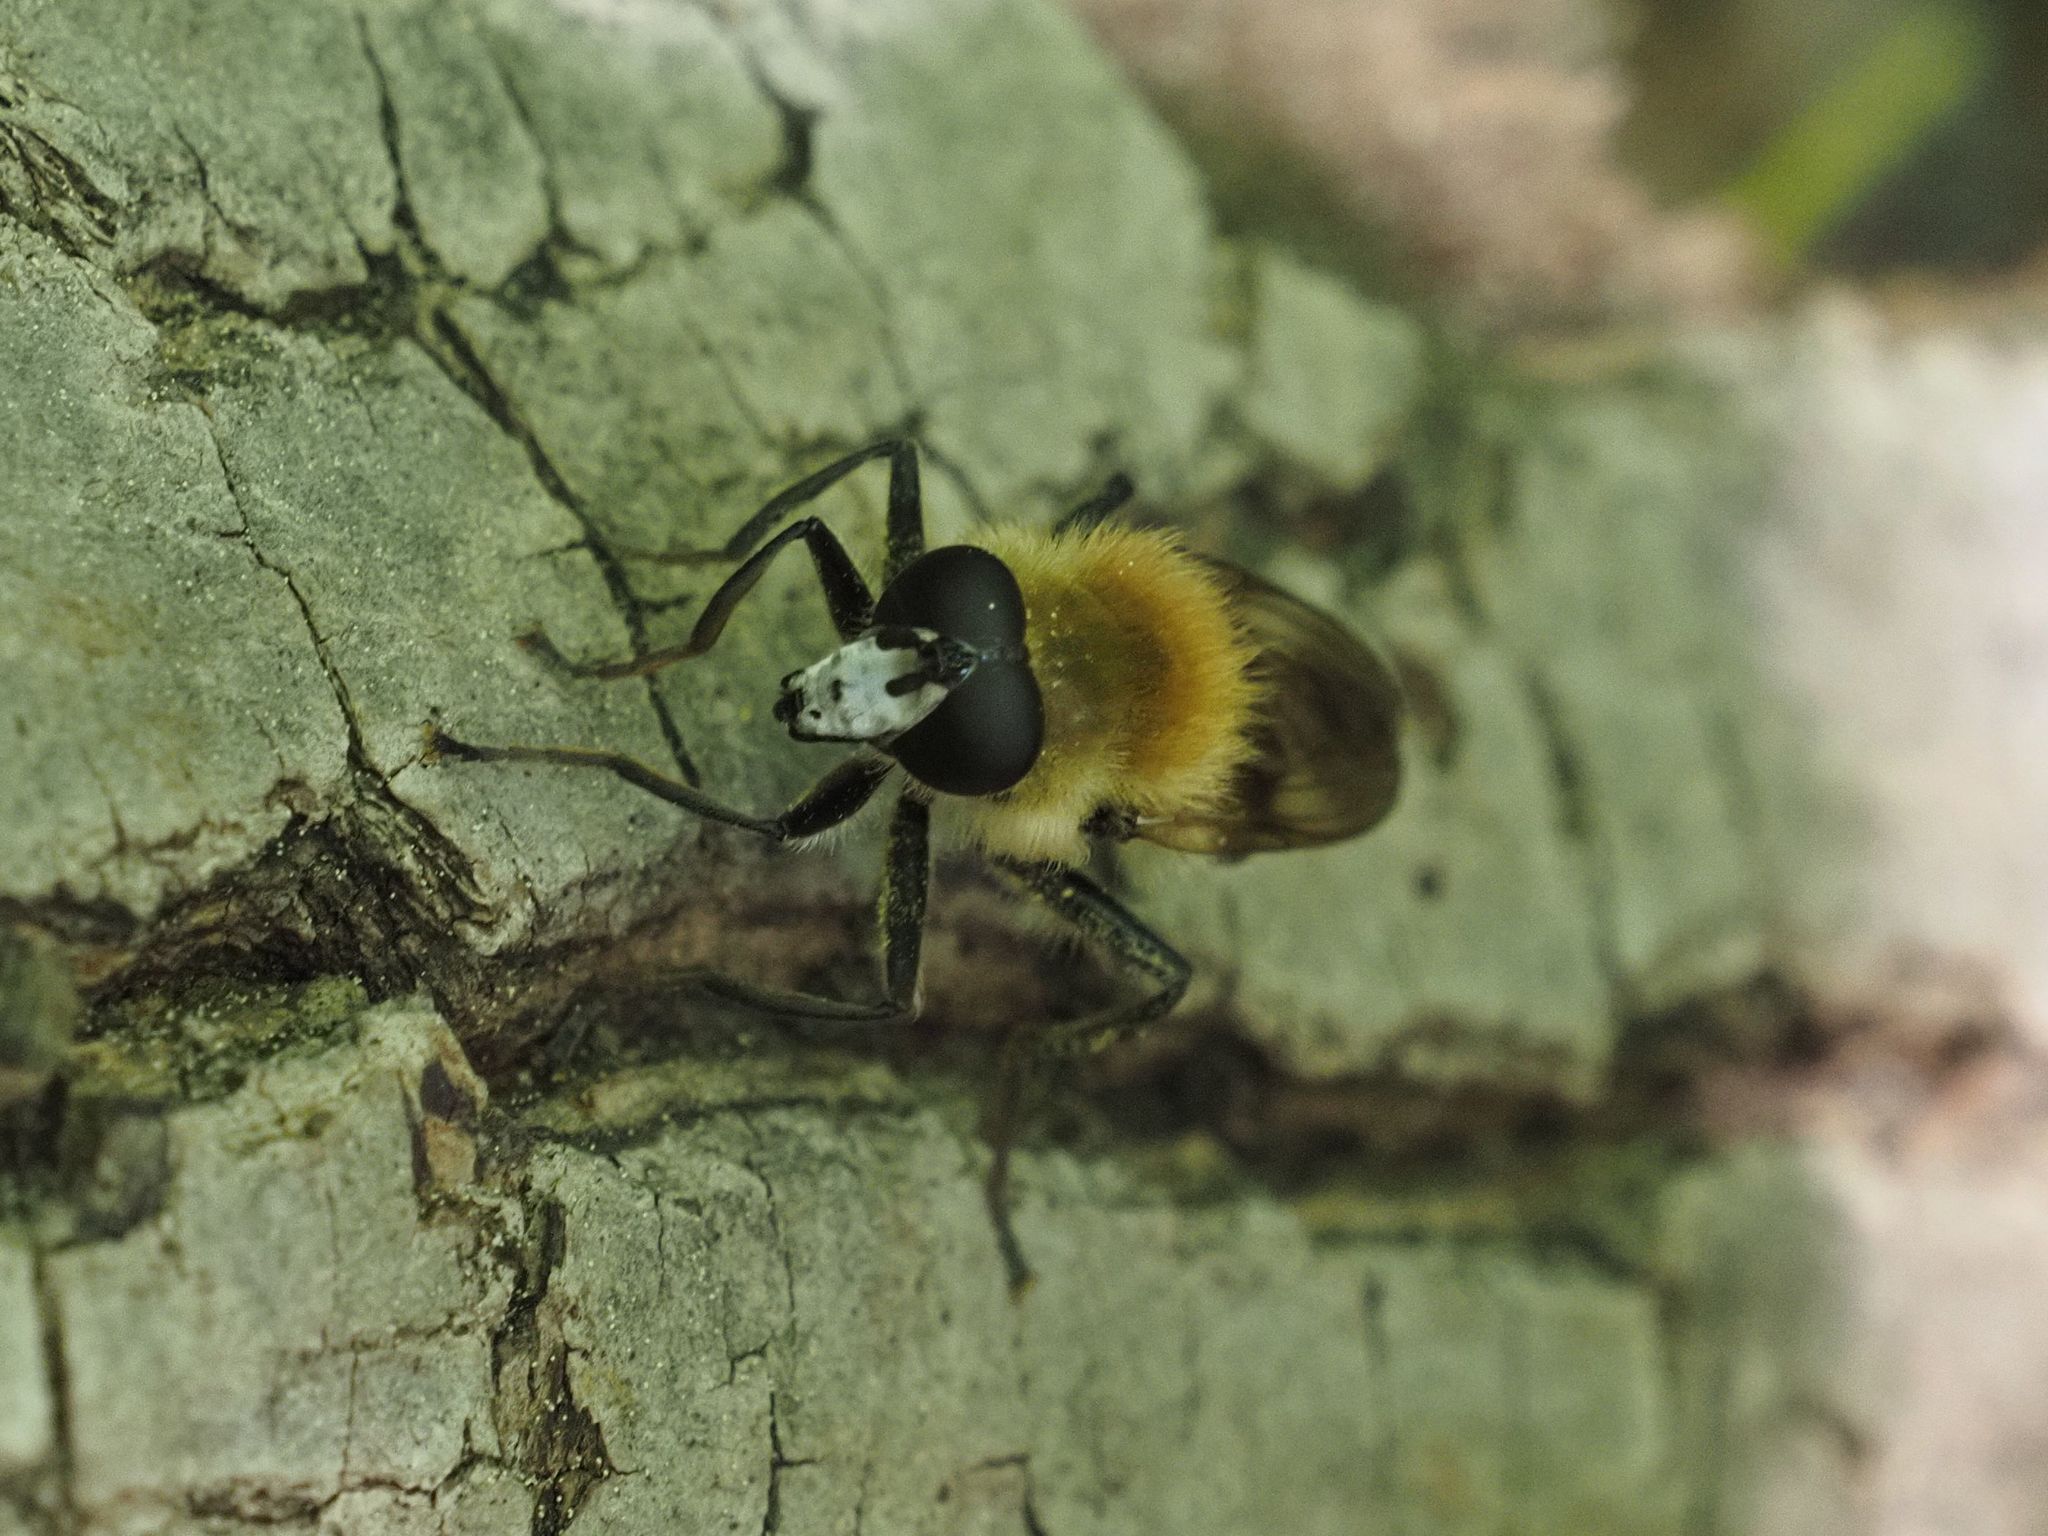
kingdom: Animalia
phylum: Arthropoda
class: Insecta
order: Diptera
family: Syrphidae
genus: Criorhina
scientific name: Criorhina floccosa
